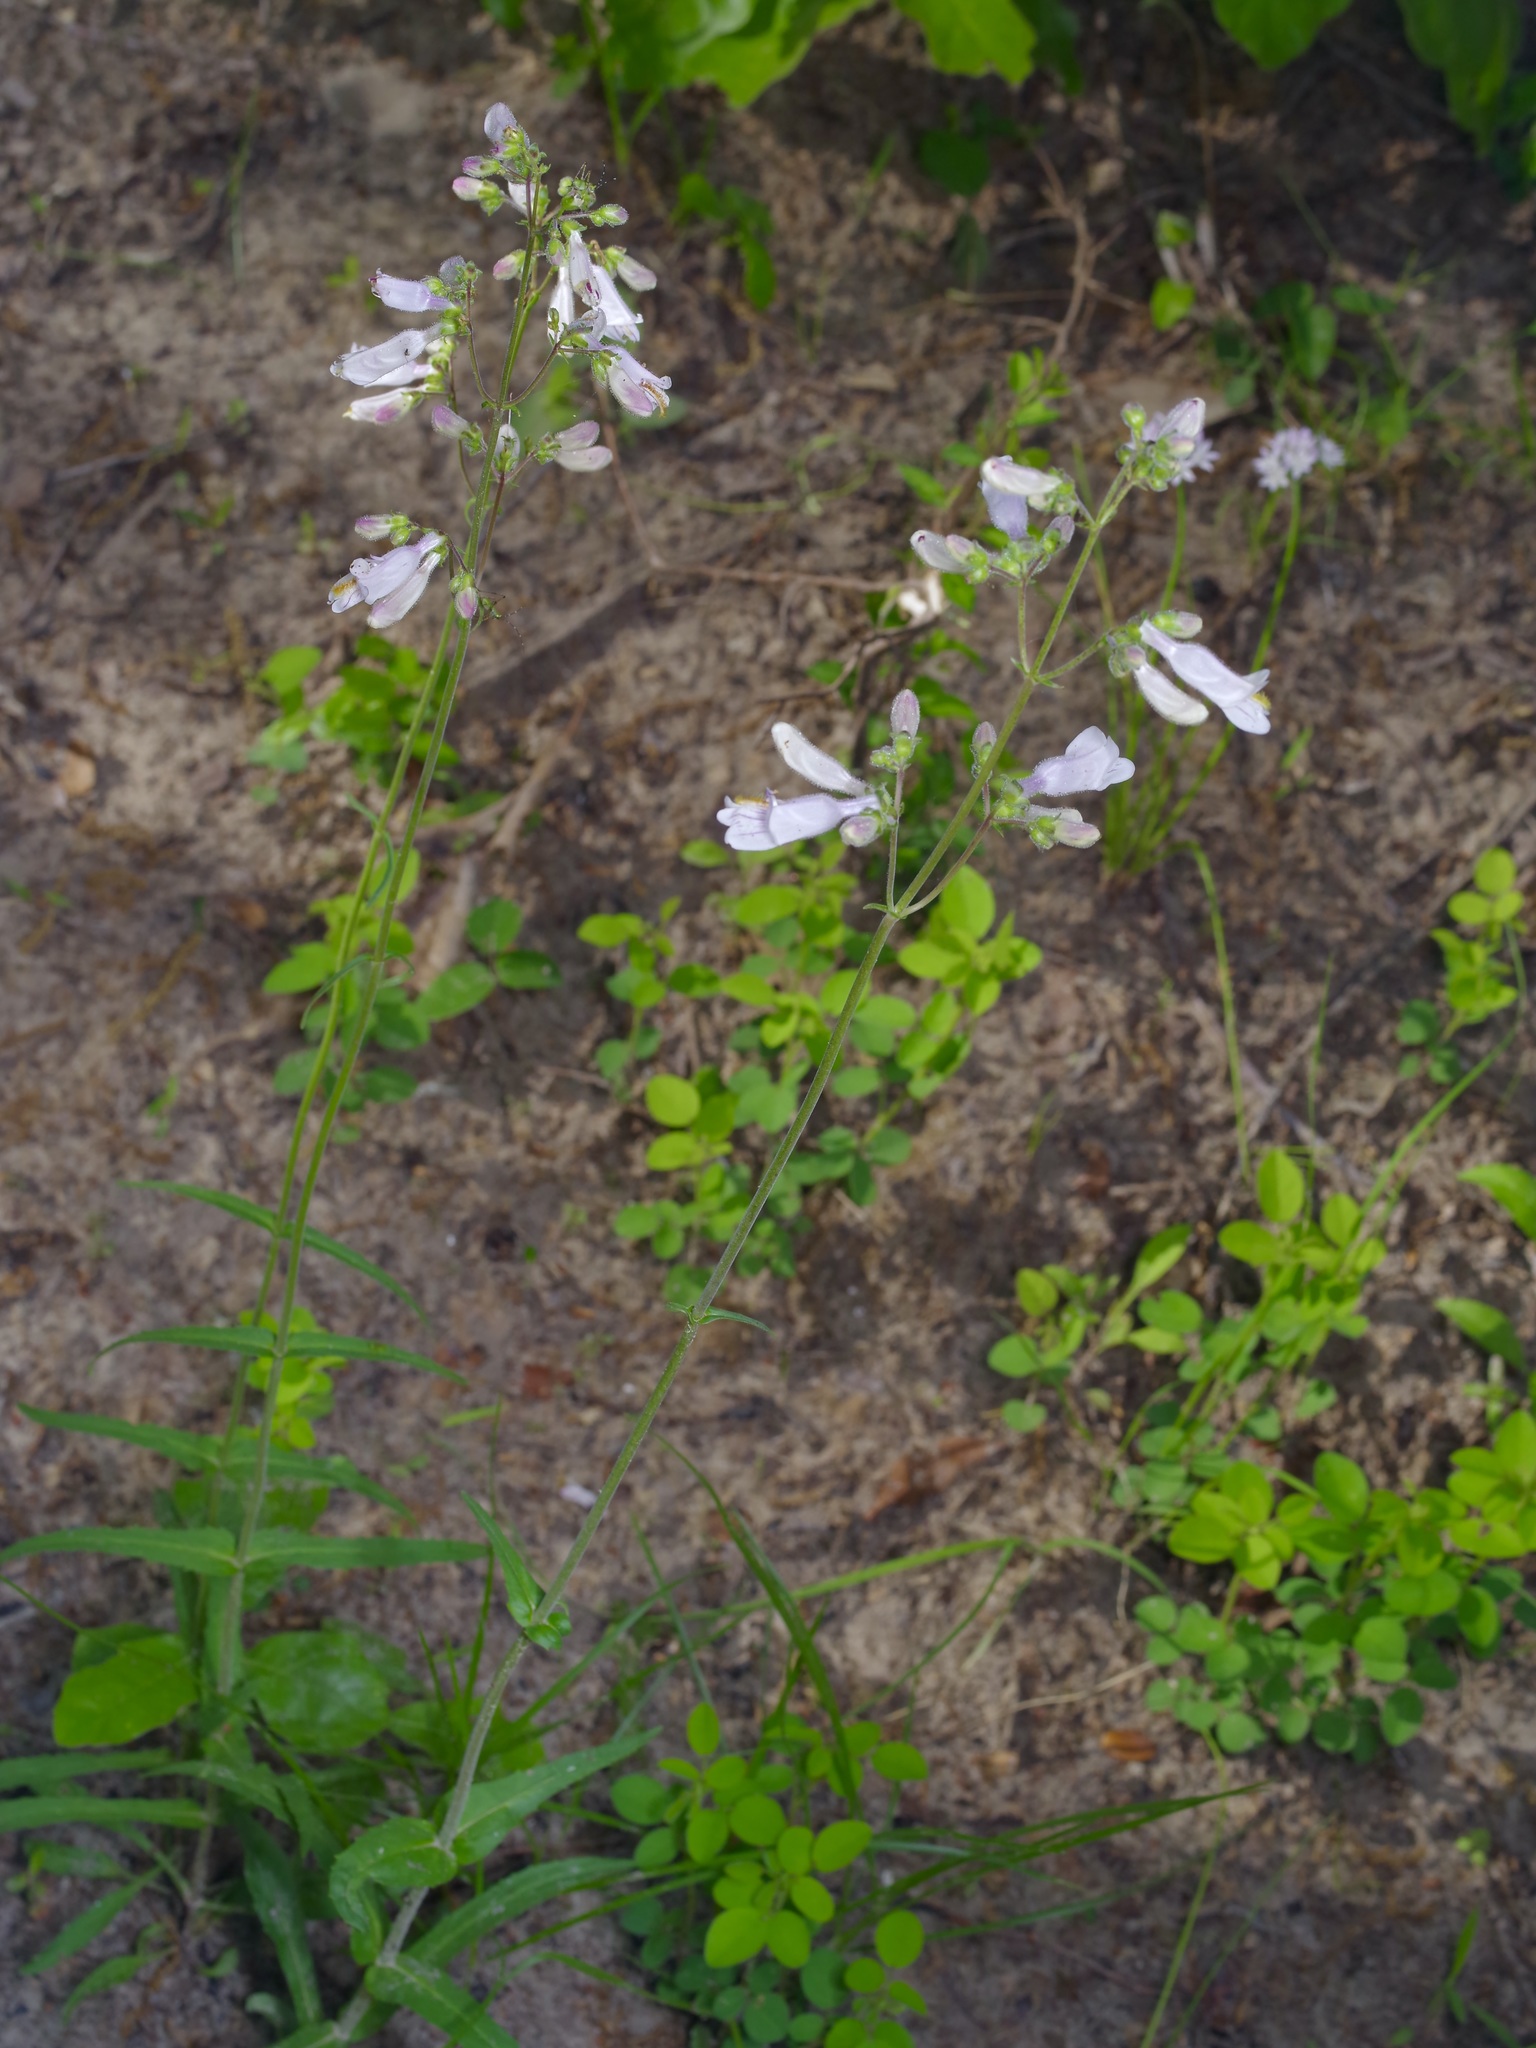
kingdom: Plantae
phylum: Tracheophyta
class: Magnoliopsida
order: Lamiales
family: Plantaginaceae
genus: Penstemon
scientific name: Penstemon laxiflorus
